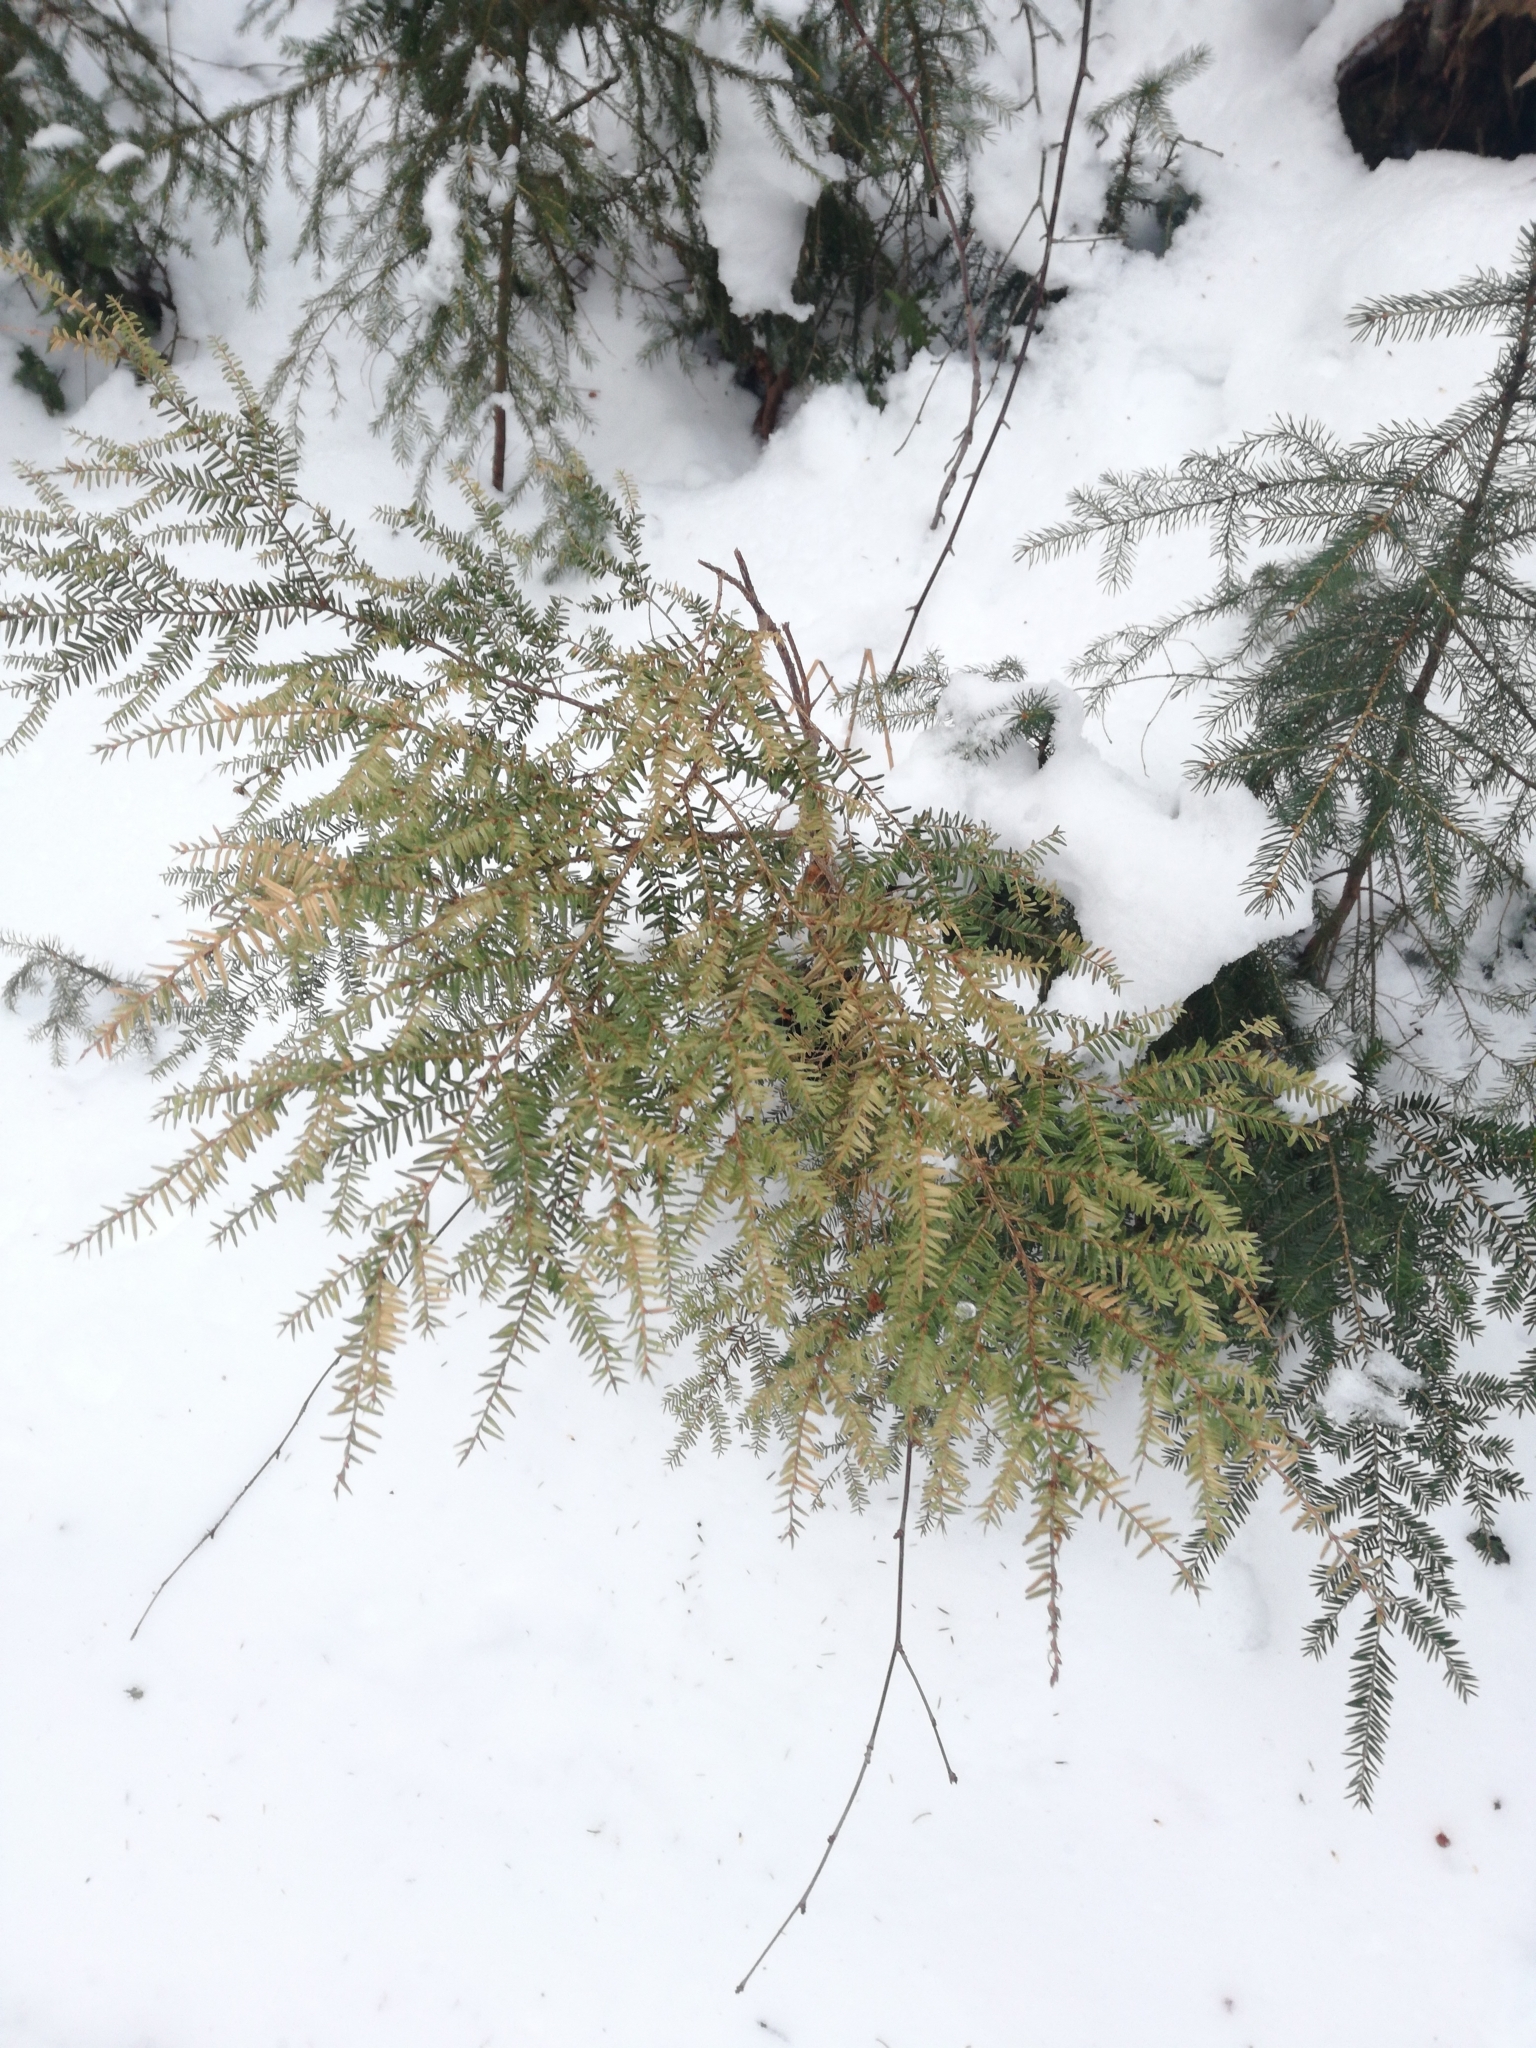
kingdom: Plantae
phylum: Tracheophyta
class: Pinopsida
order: Pinales
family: Pinaceae
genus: Tsuga
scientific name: Tsuga canadensis
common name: Eastern hemlock
